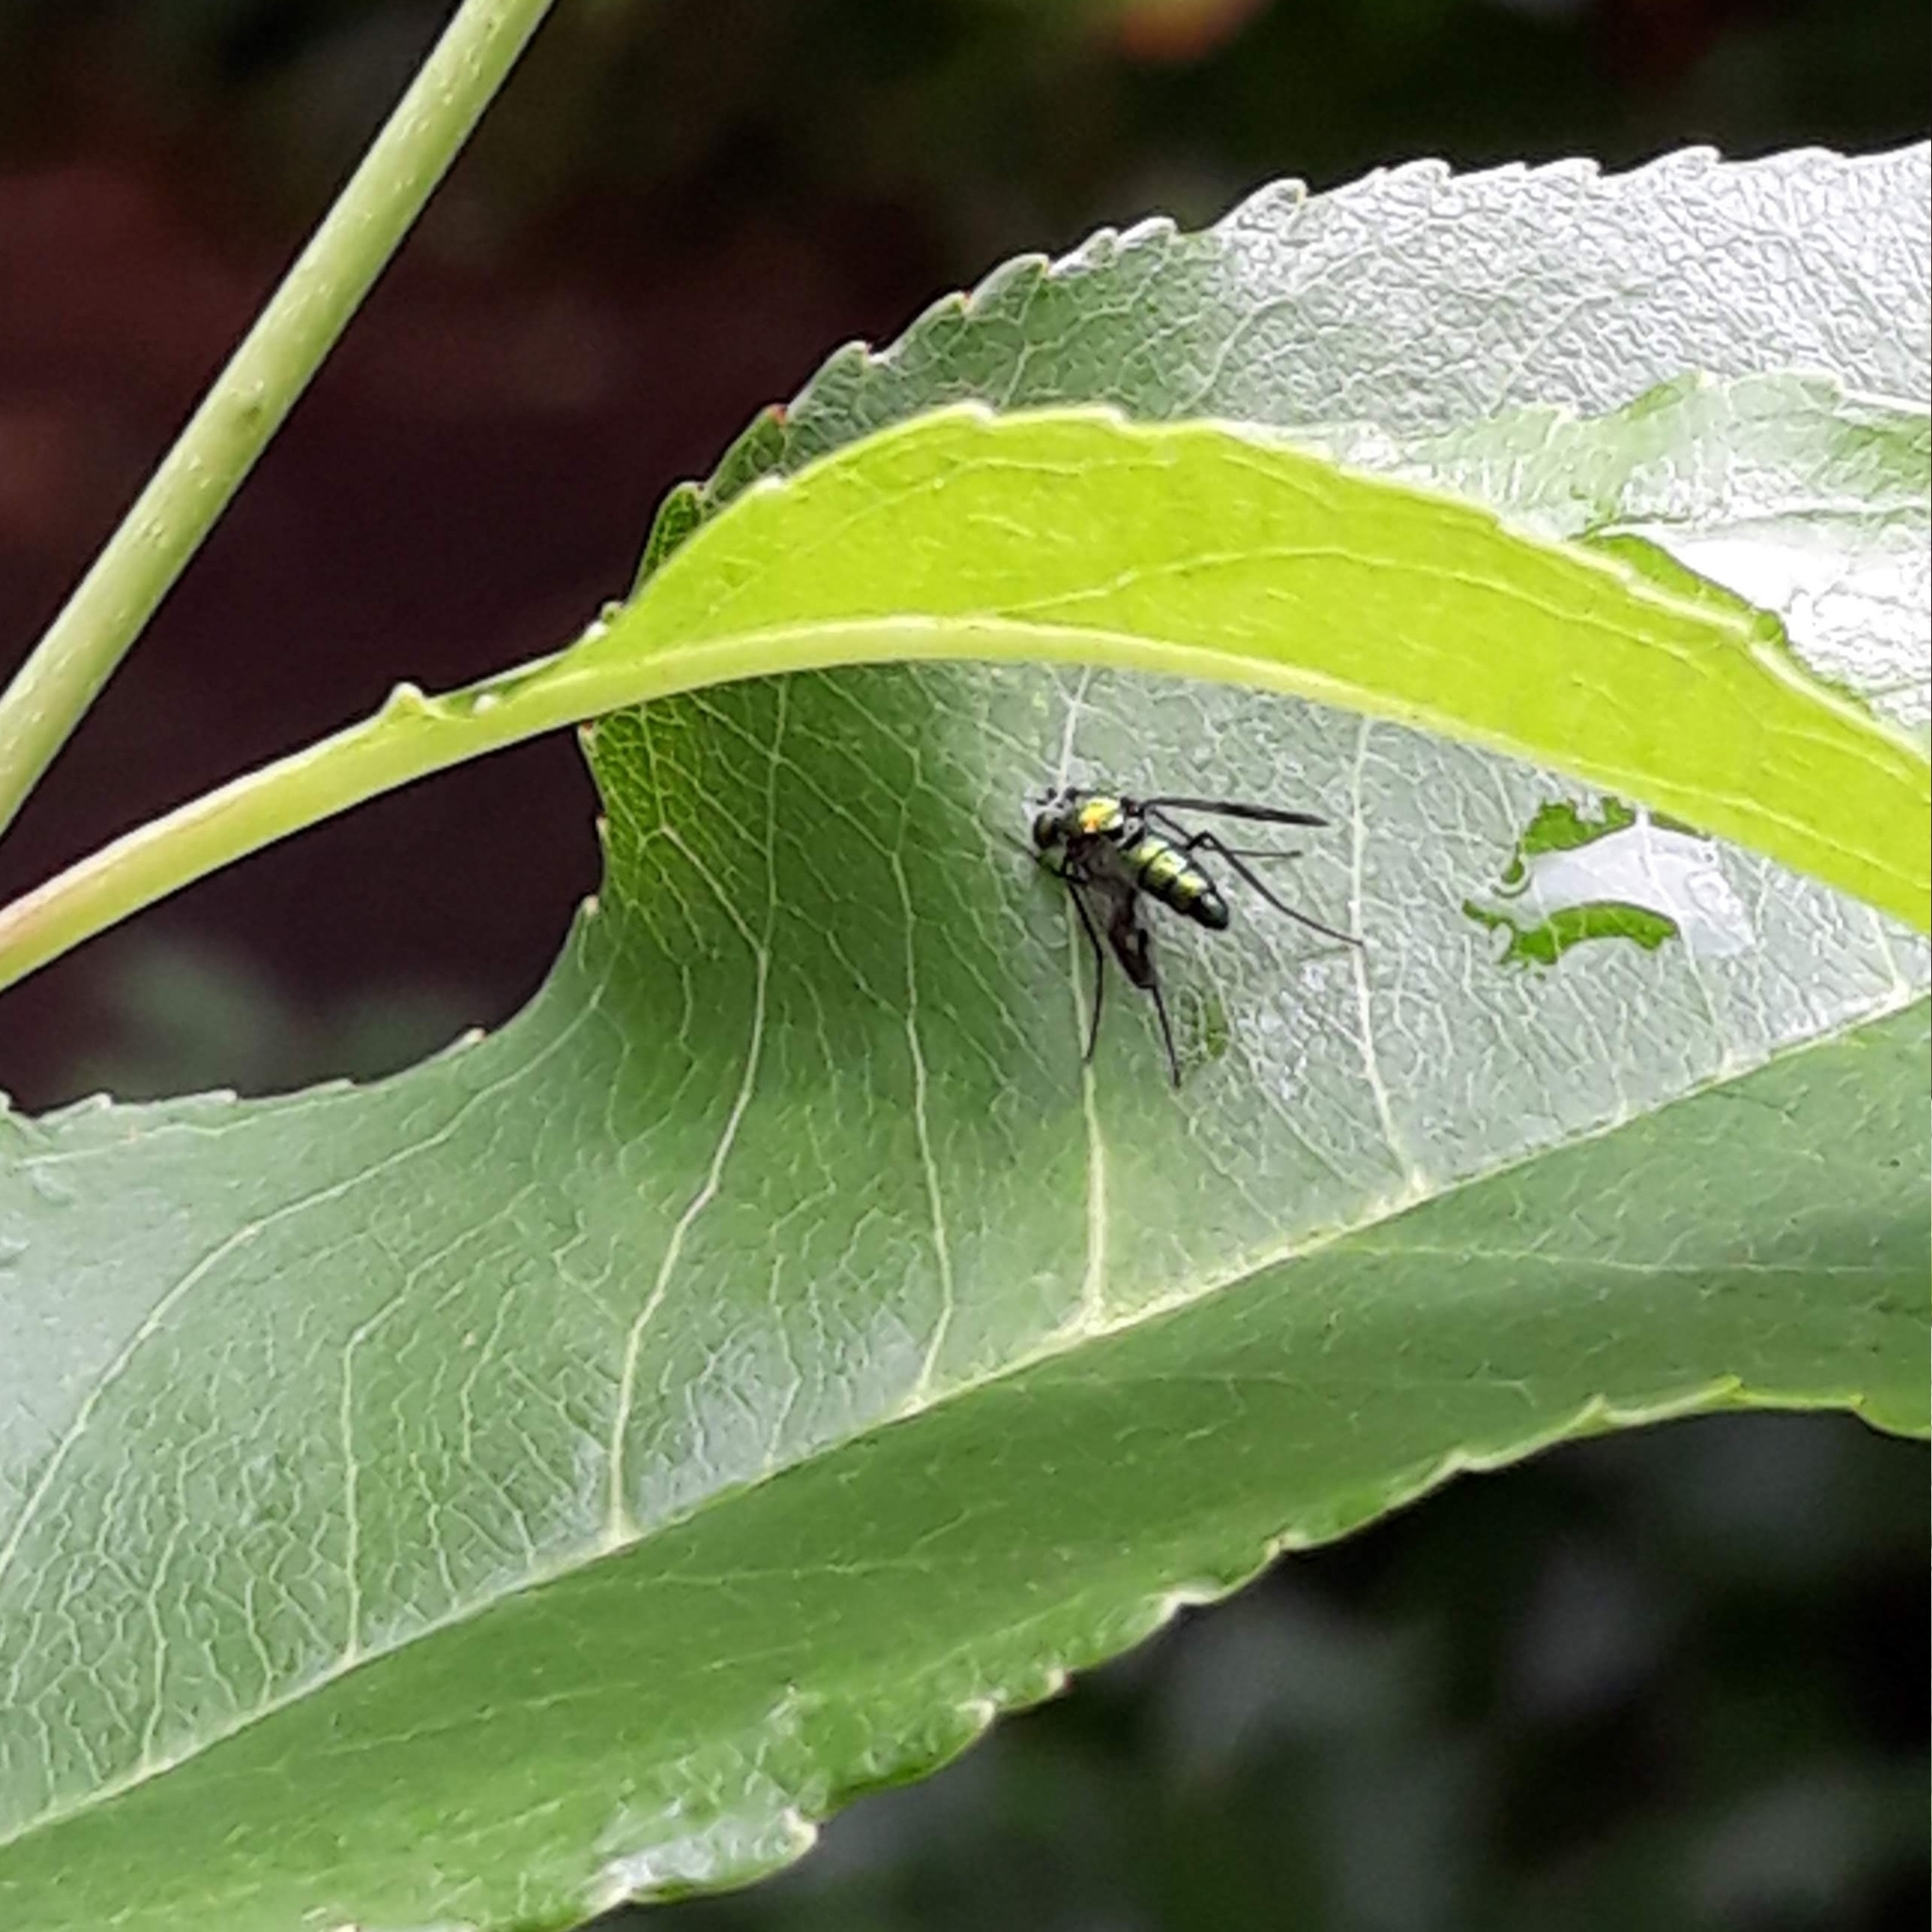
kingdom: Animalia
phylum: Arthropoda
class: Insecta
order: Diptera
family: Dolichopodidae
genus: Condylostylus
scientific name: Condylostylus patibulatus
